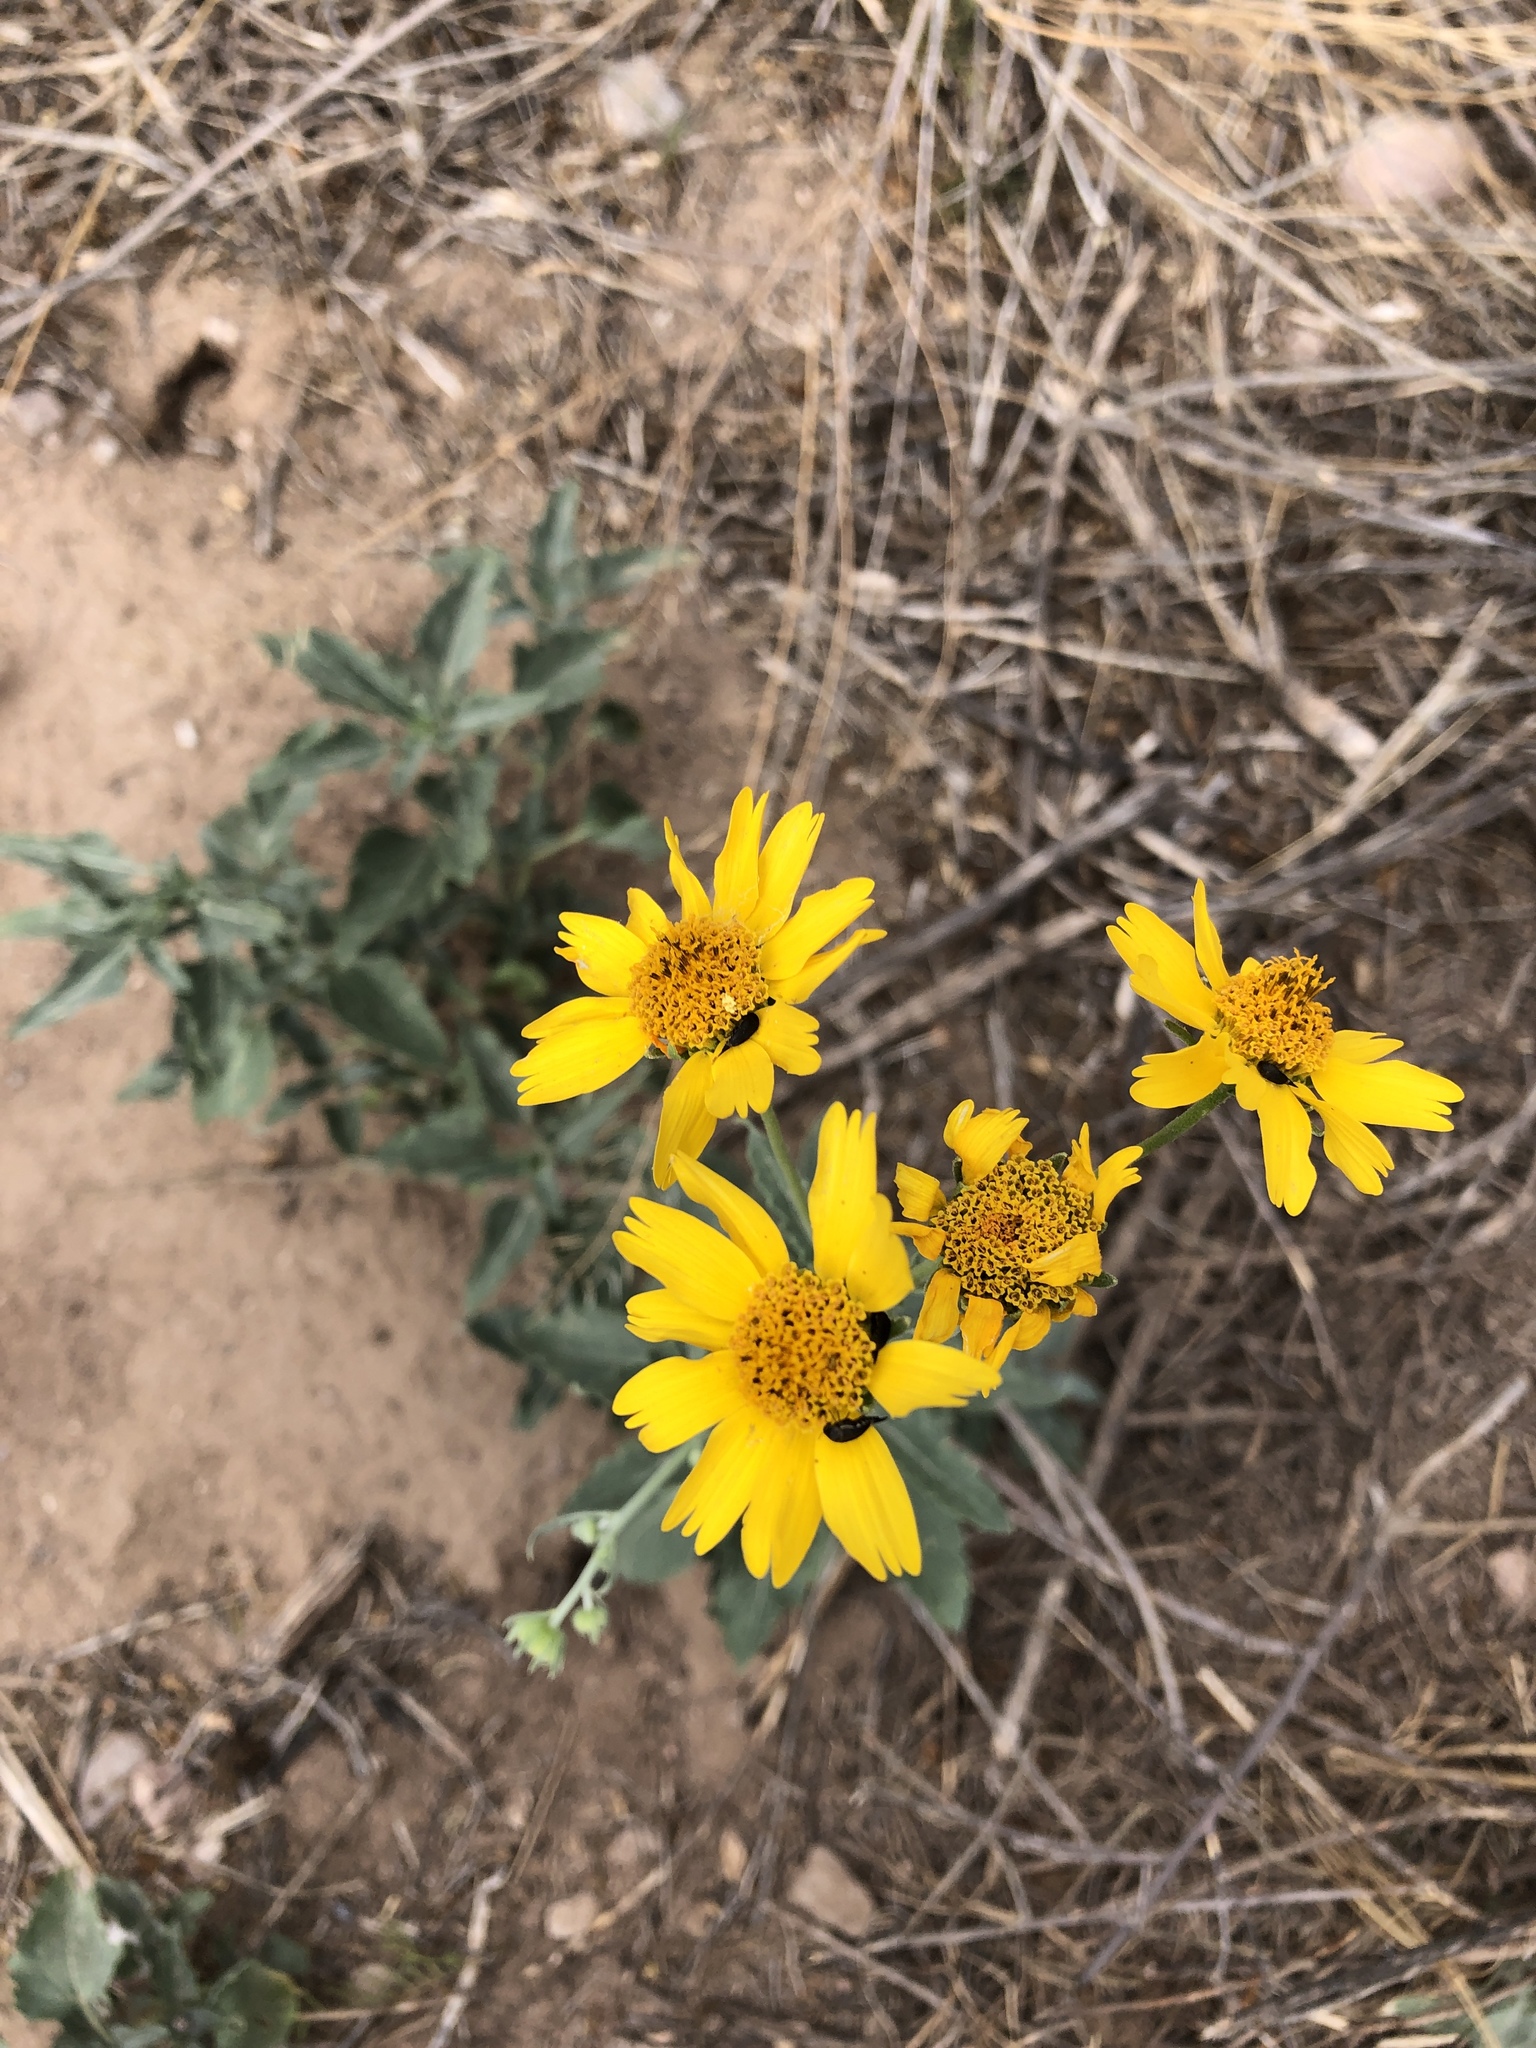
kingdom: Plantae
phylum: Tracheophyta
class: Magnoliopsida
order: Asterales
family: Asteraceae
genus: Verbesina
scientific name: Verbesina encelioides
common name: Golden crownbeard
